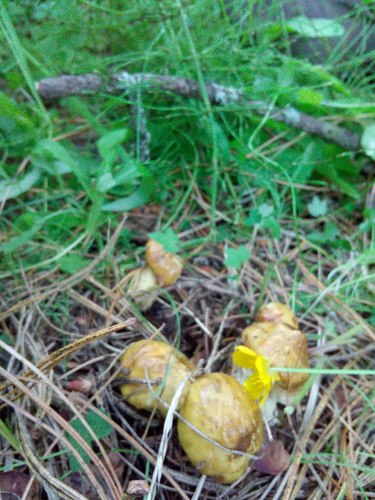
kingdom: Fungi
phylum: Basidiomycota
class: Agaricomycetes
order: Boletales
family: Suillaceae
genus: Suillus
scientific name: Suillus americanus
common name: Chicken fat mushroom
